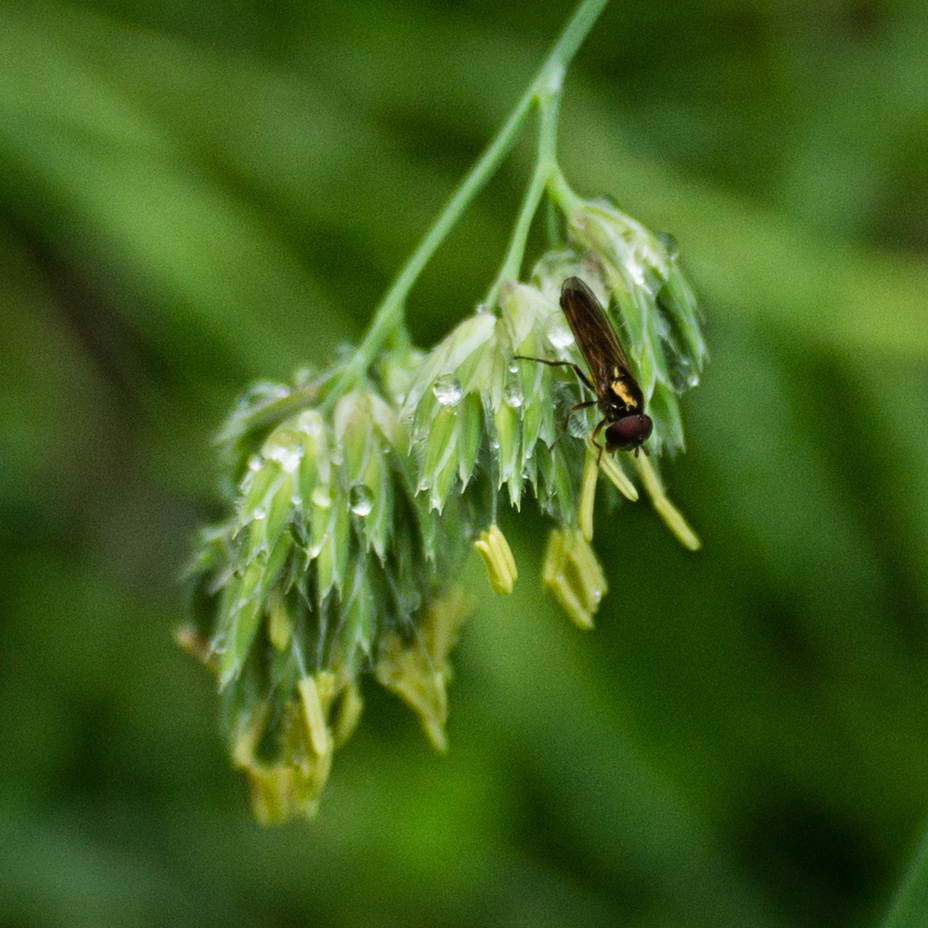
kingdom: Animalia
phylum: Arthropoda
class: Insecta
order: Diptera
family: Syrphidae
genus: Melanostoma
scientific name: Melanostoma fasciatum
